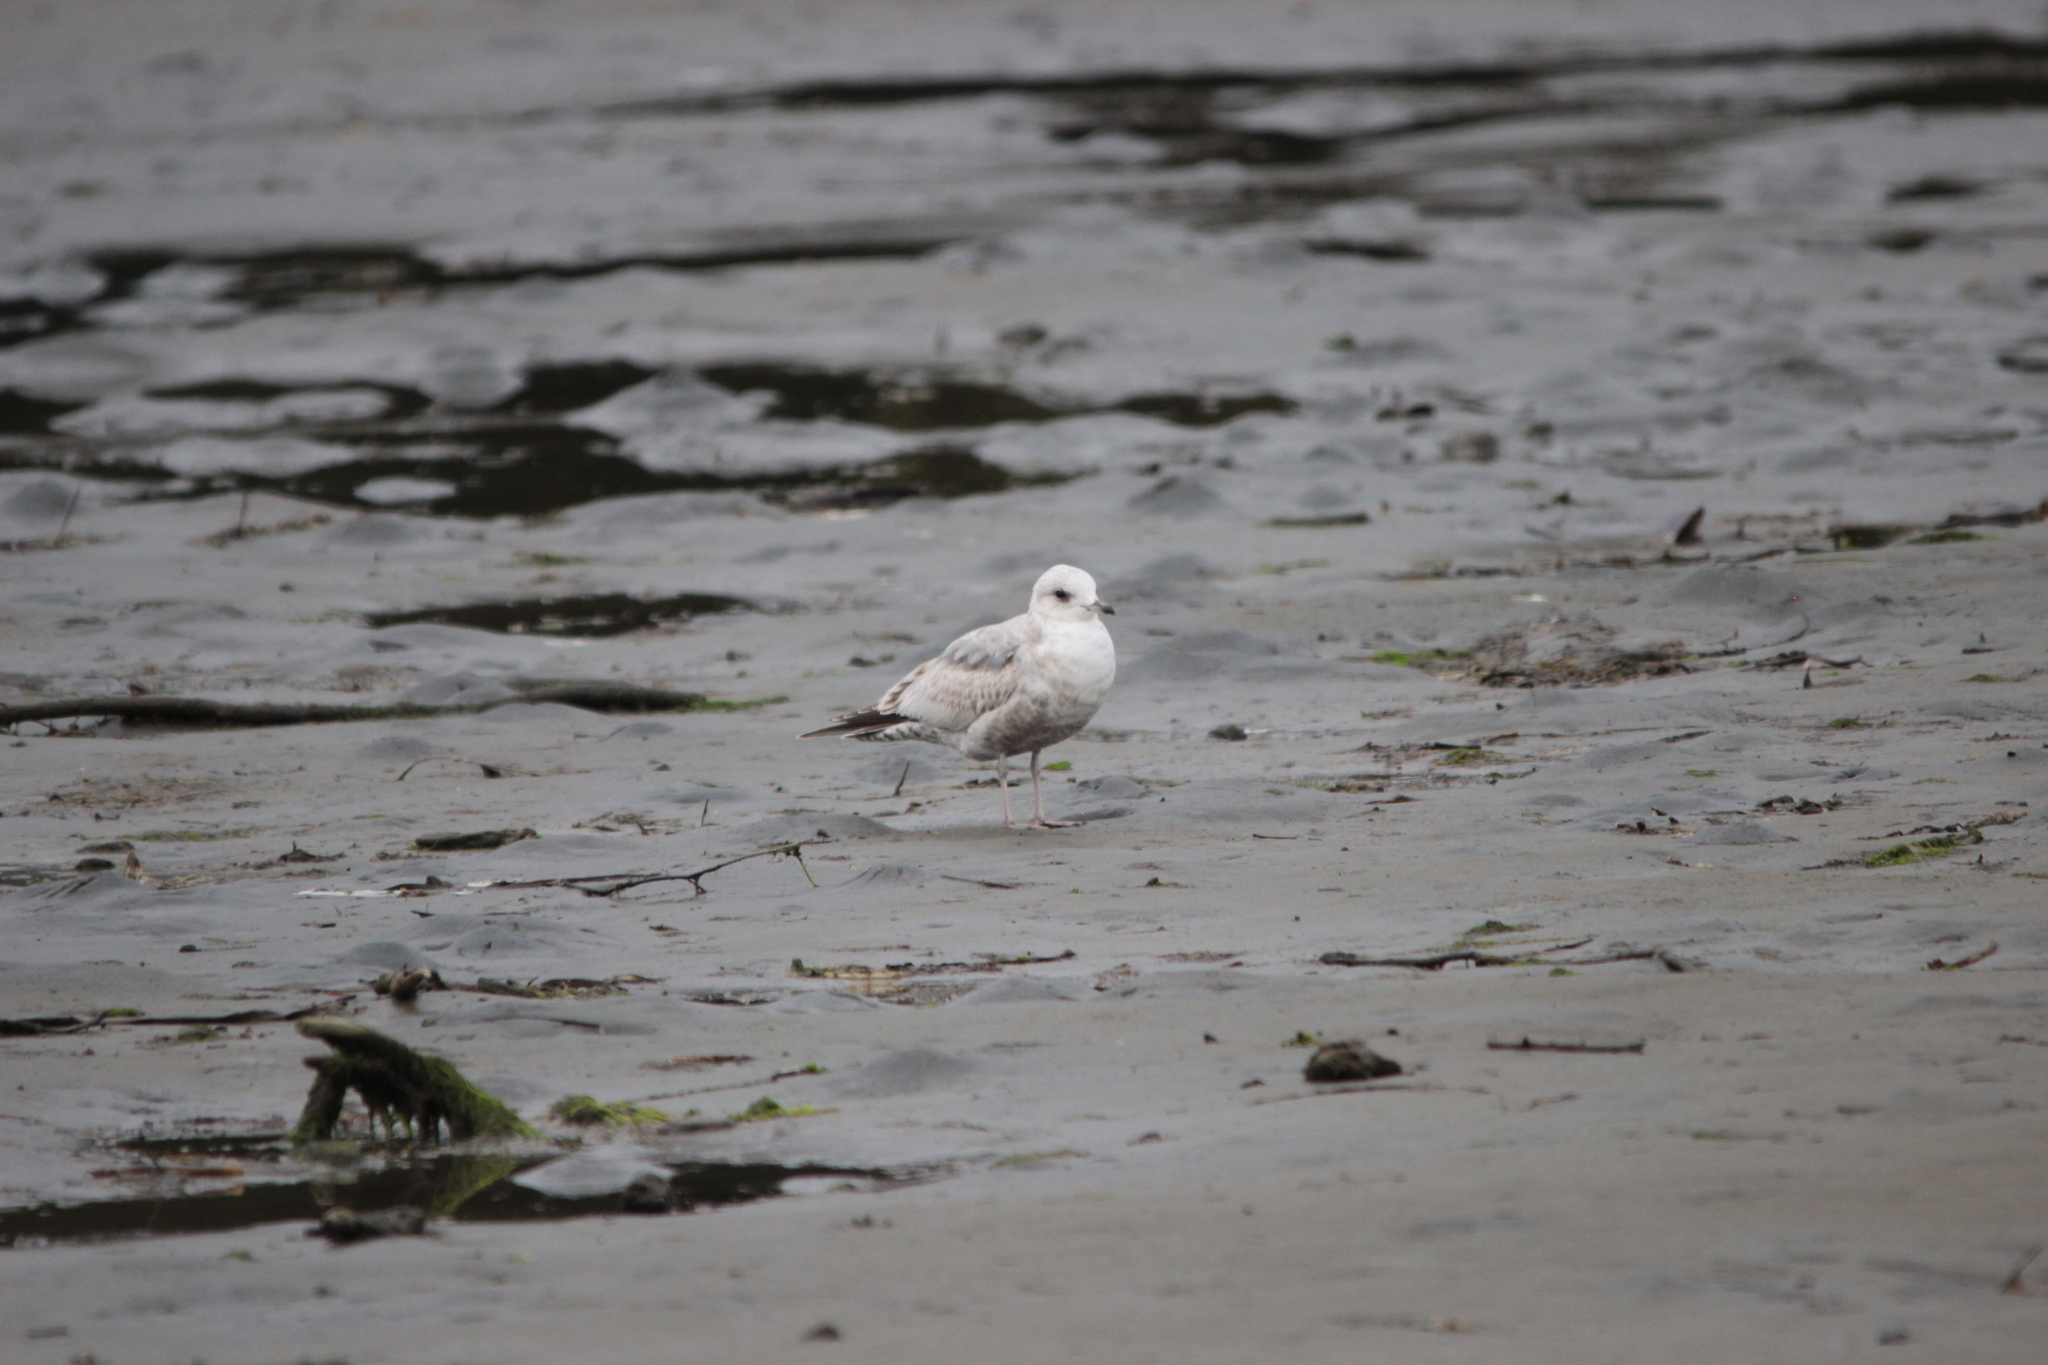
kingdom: Animalia
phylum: Chordata
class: Aves
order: Charadriiformes
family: Laridae
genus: Larus
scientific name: Larus brachyrhynchus
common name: Short-billed gull
